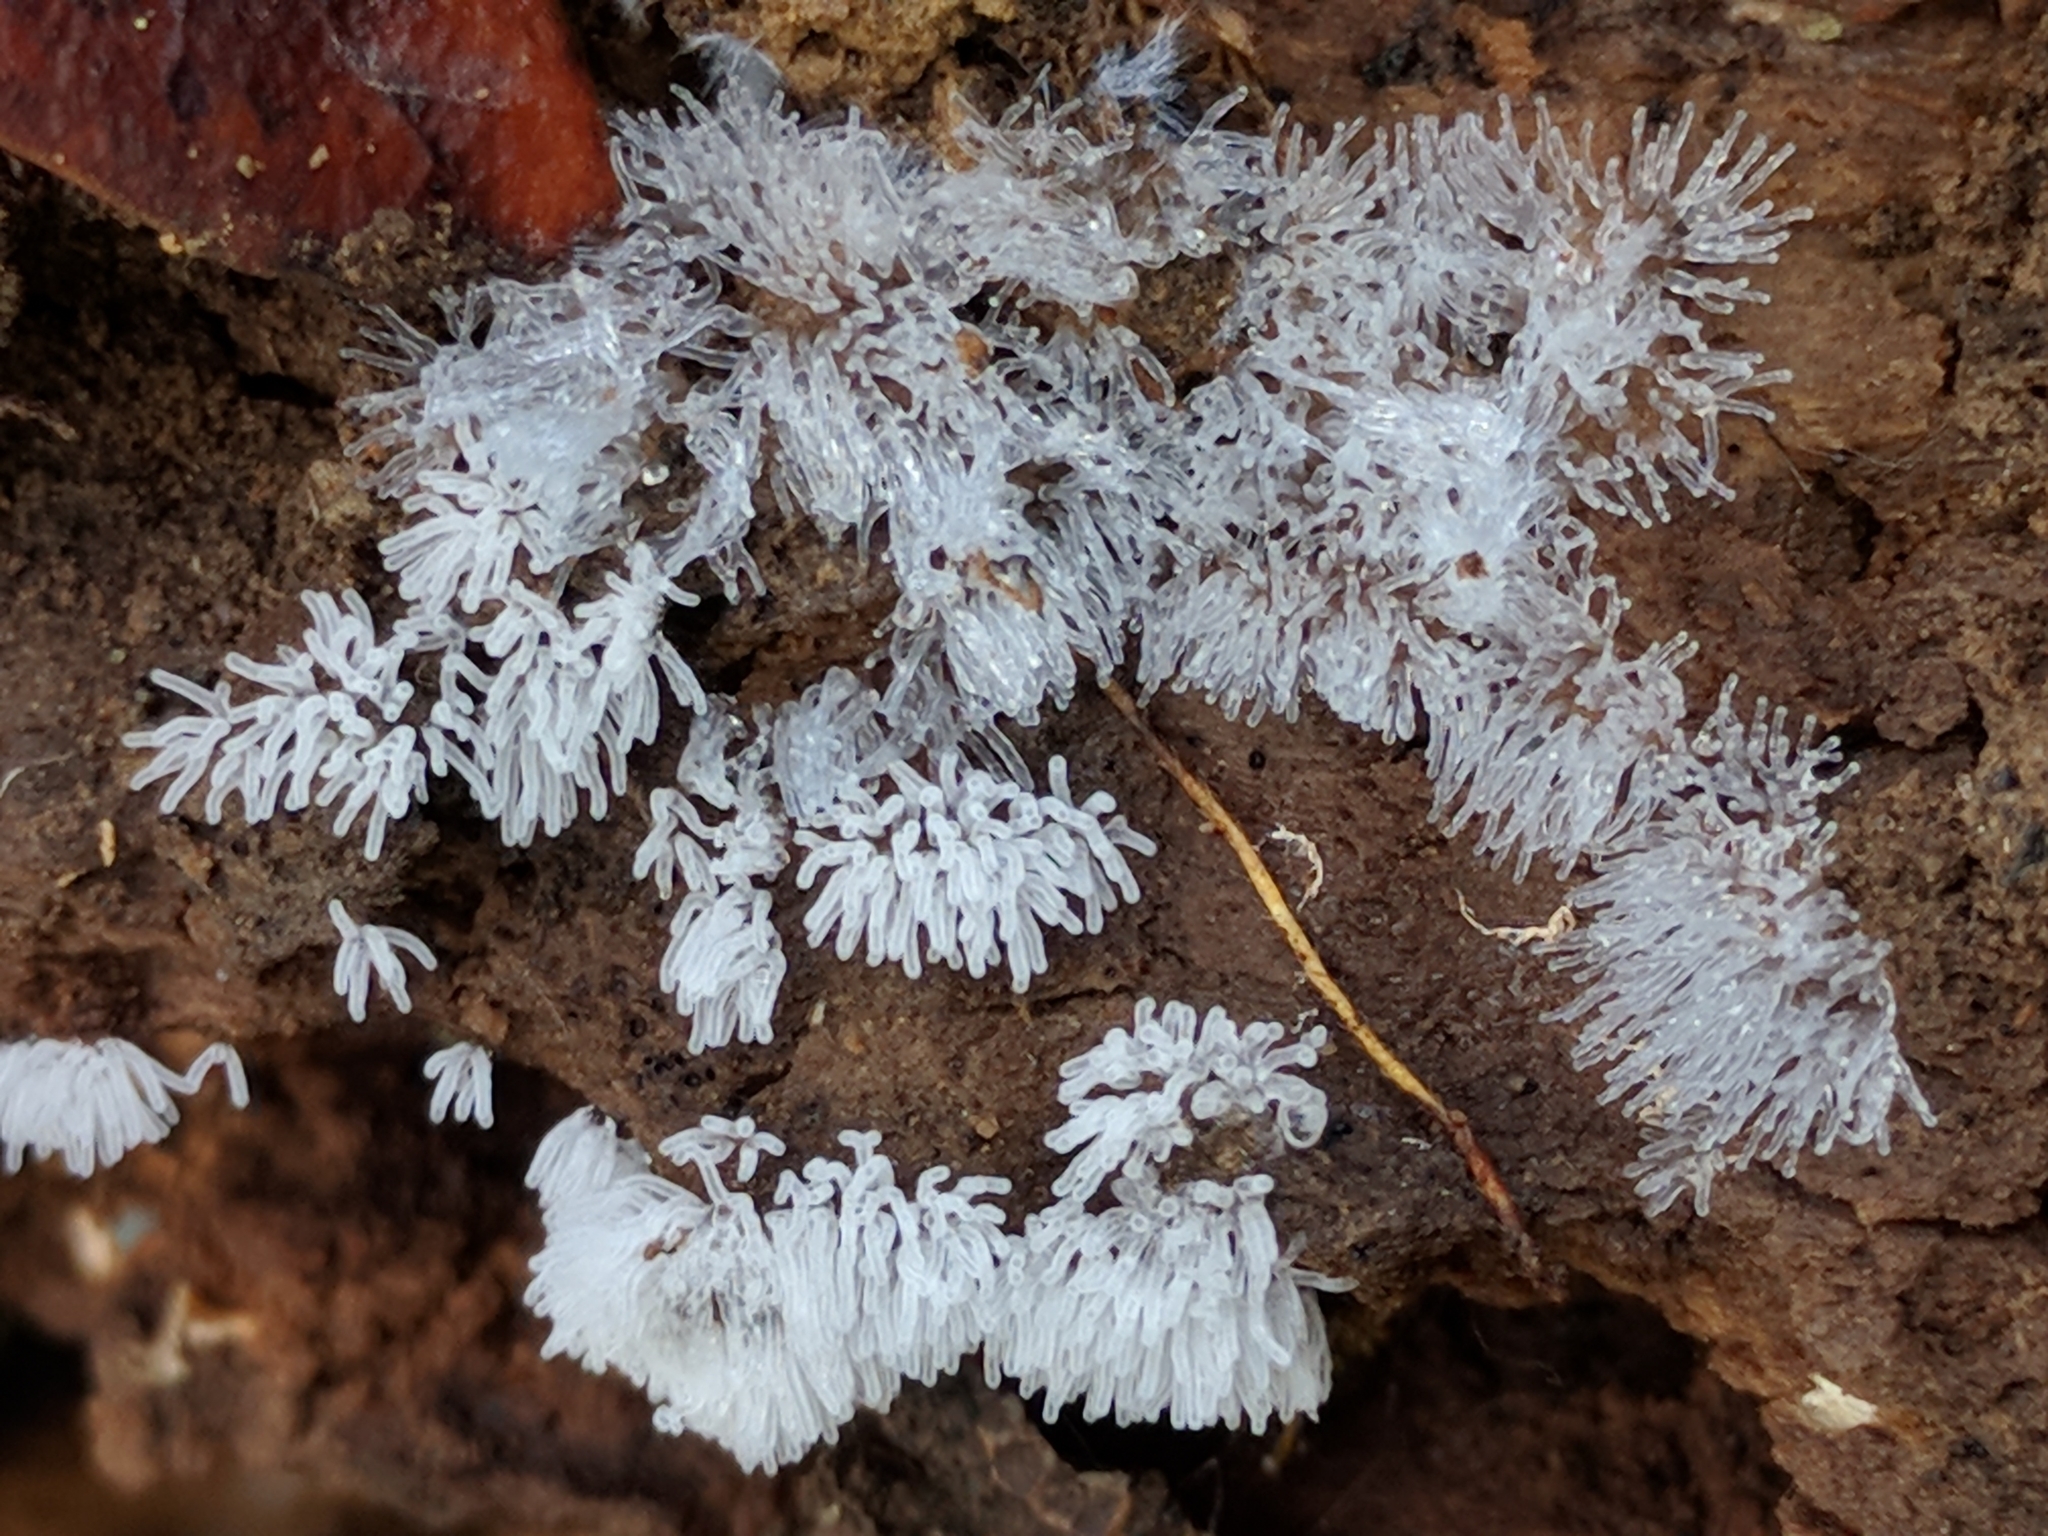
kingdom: Protozoa
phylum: Mycetozoa
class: Protosteliomycetes
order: Ceratiomyxales
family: Ceratiomyxaceae
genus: Ceratiomyxa
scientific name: Ceratiomyxa fruticulosa
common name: Honeycomb coral slime mold
